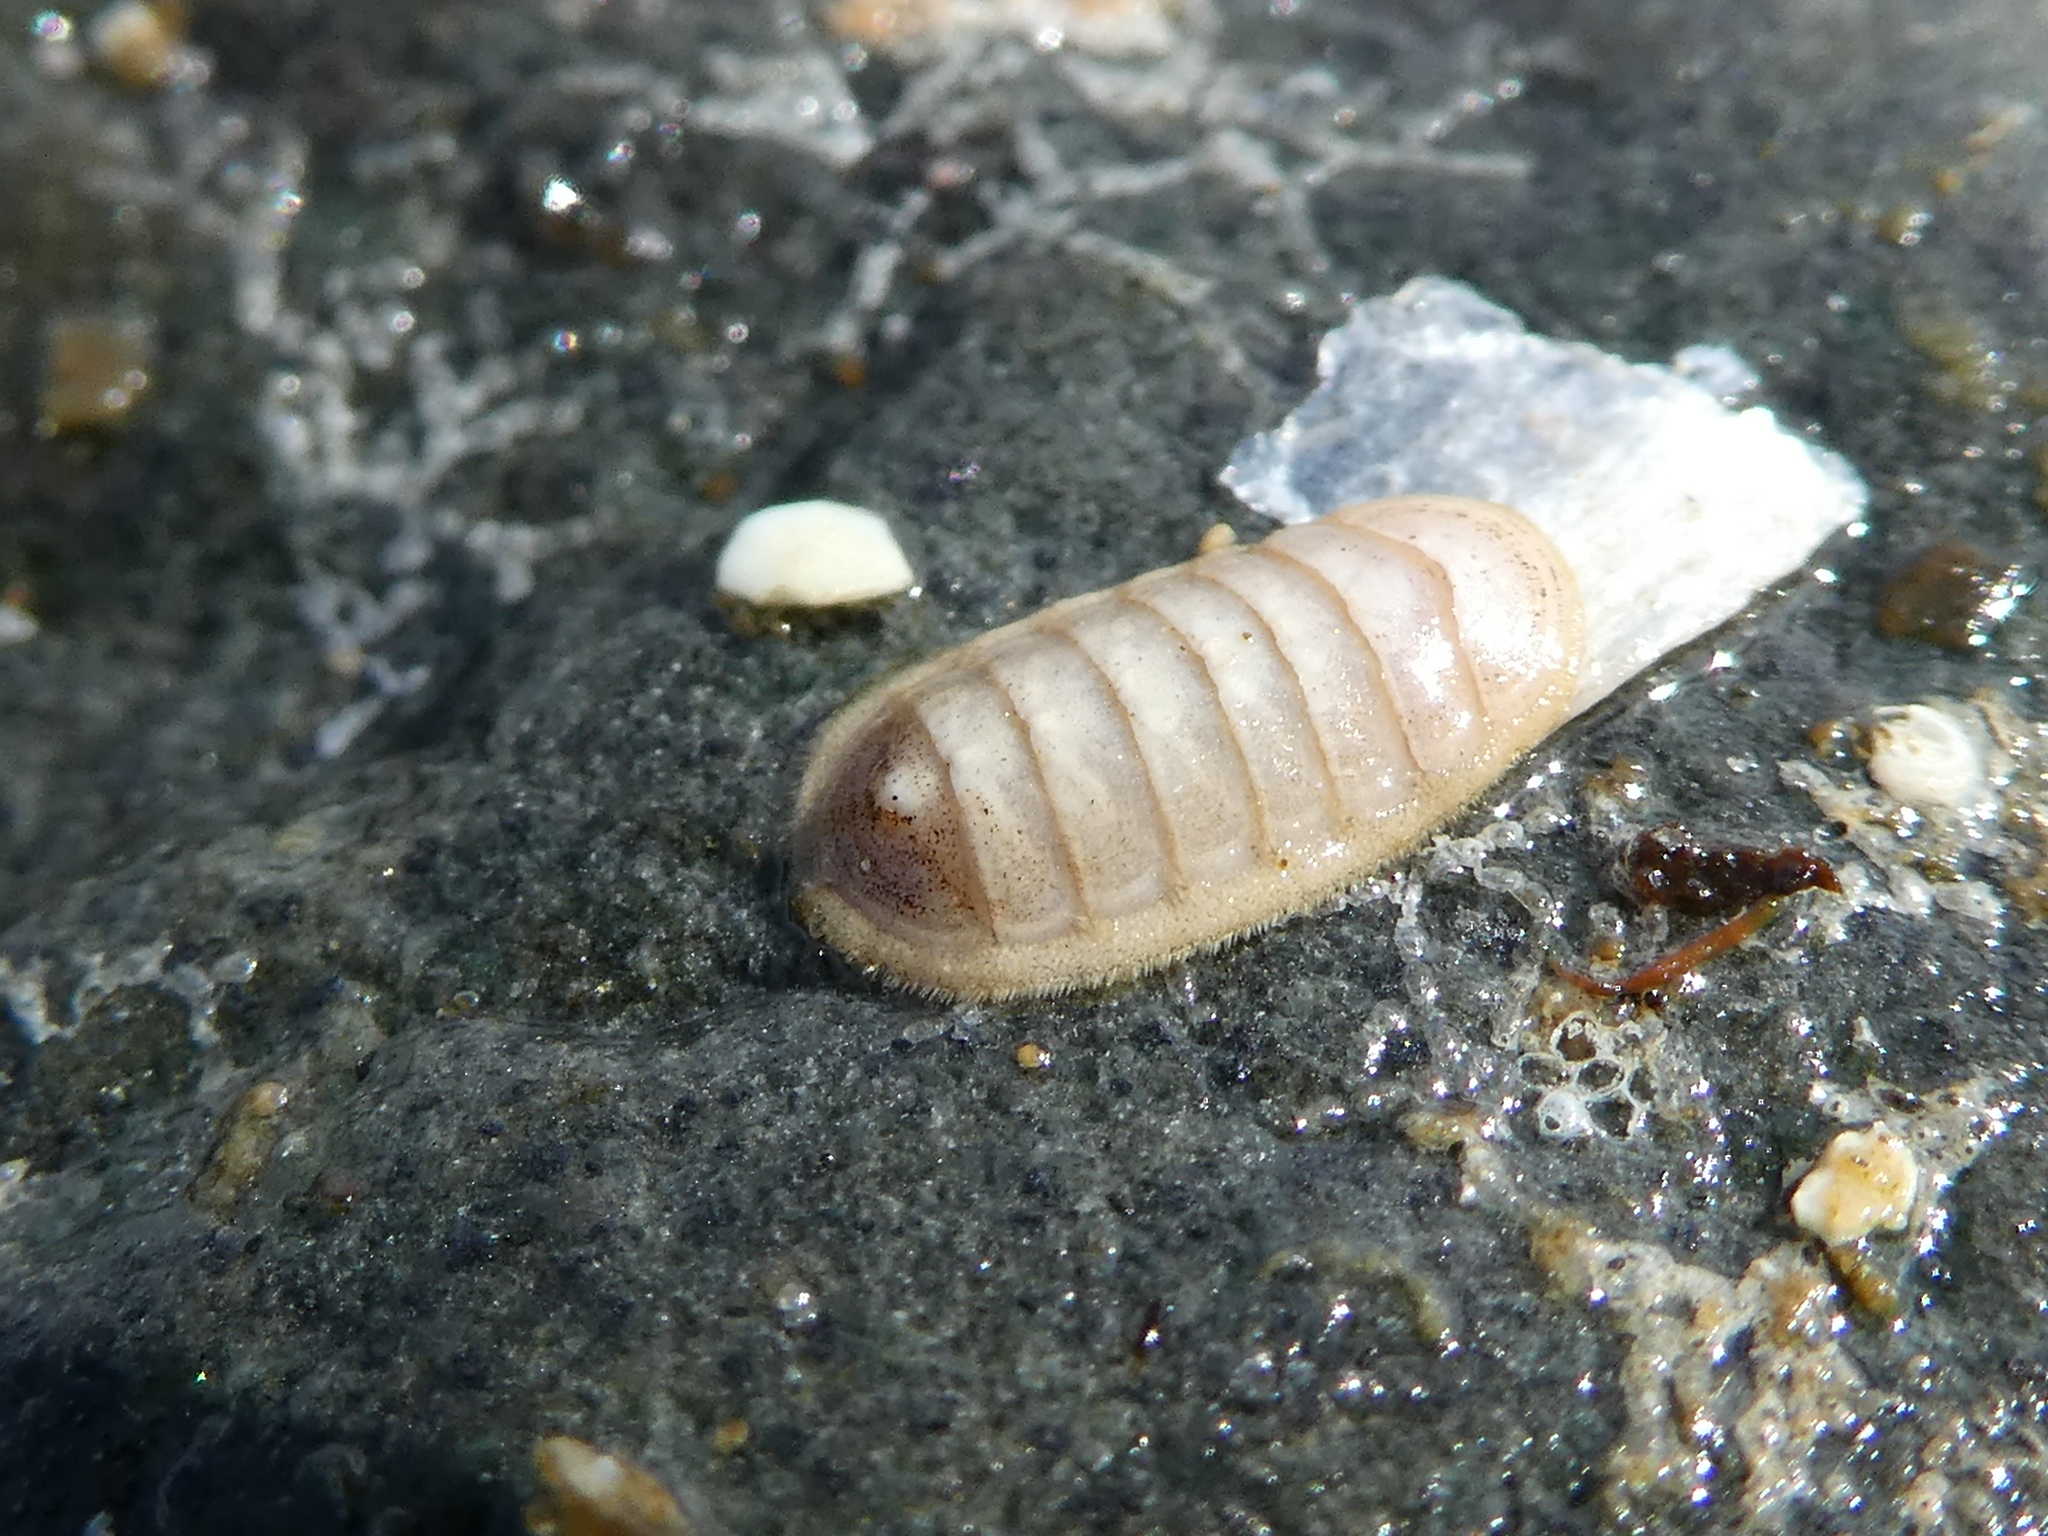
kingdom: Animalia
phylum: Mollusca
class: Polyplacophora
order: Lepidopleurida
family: Leptochitonidae
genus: Leptochiton
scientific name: Leptochiton rugatus
